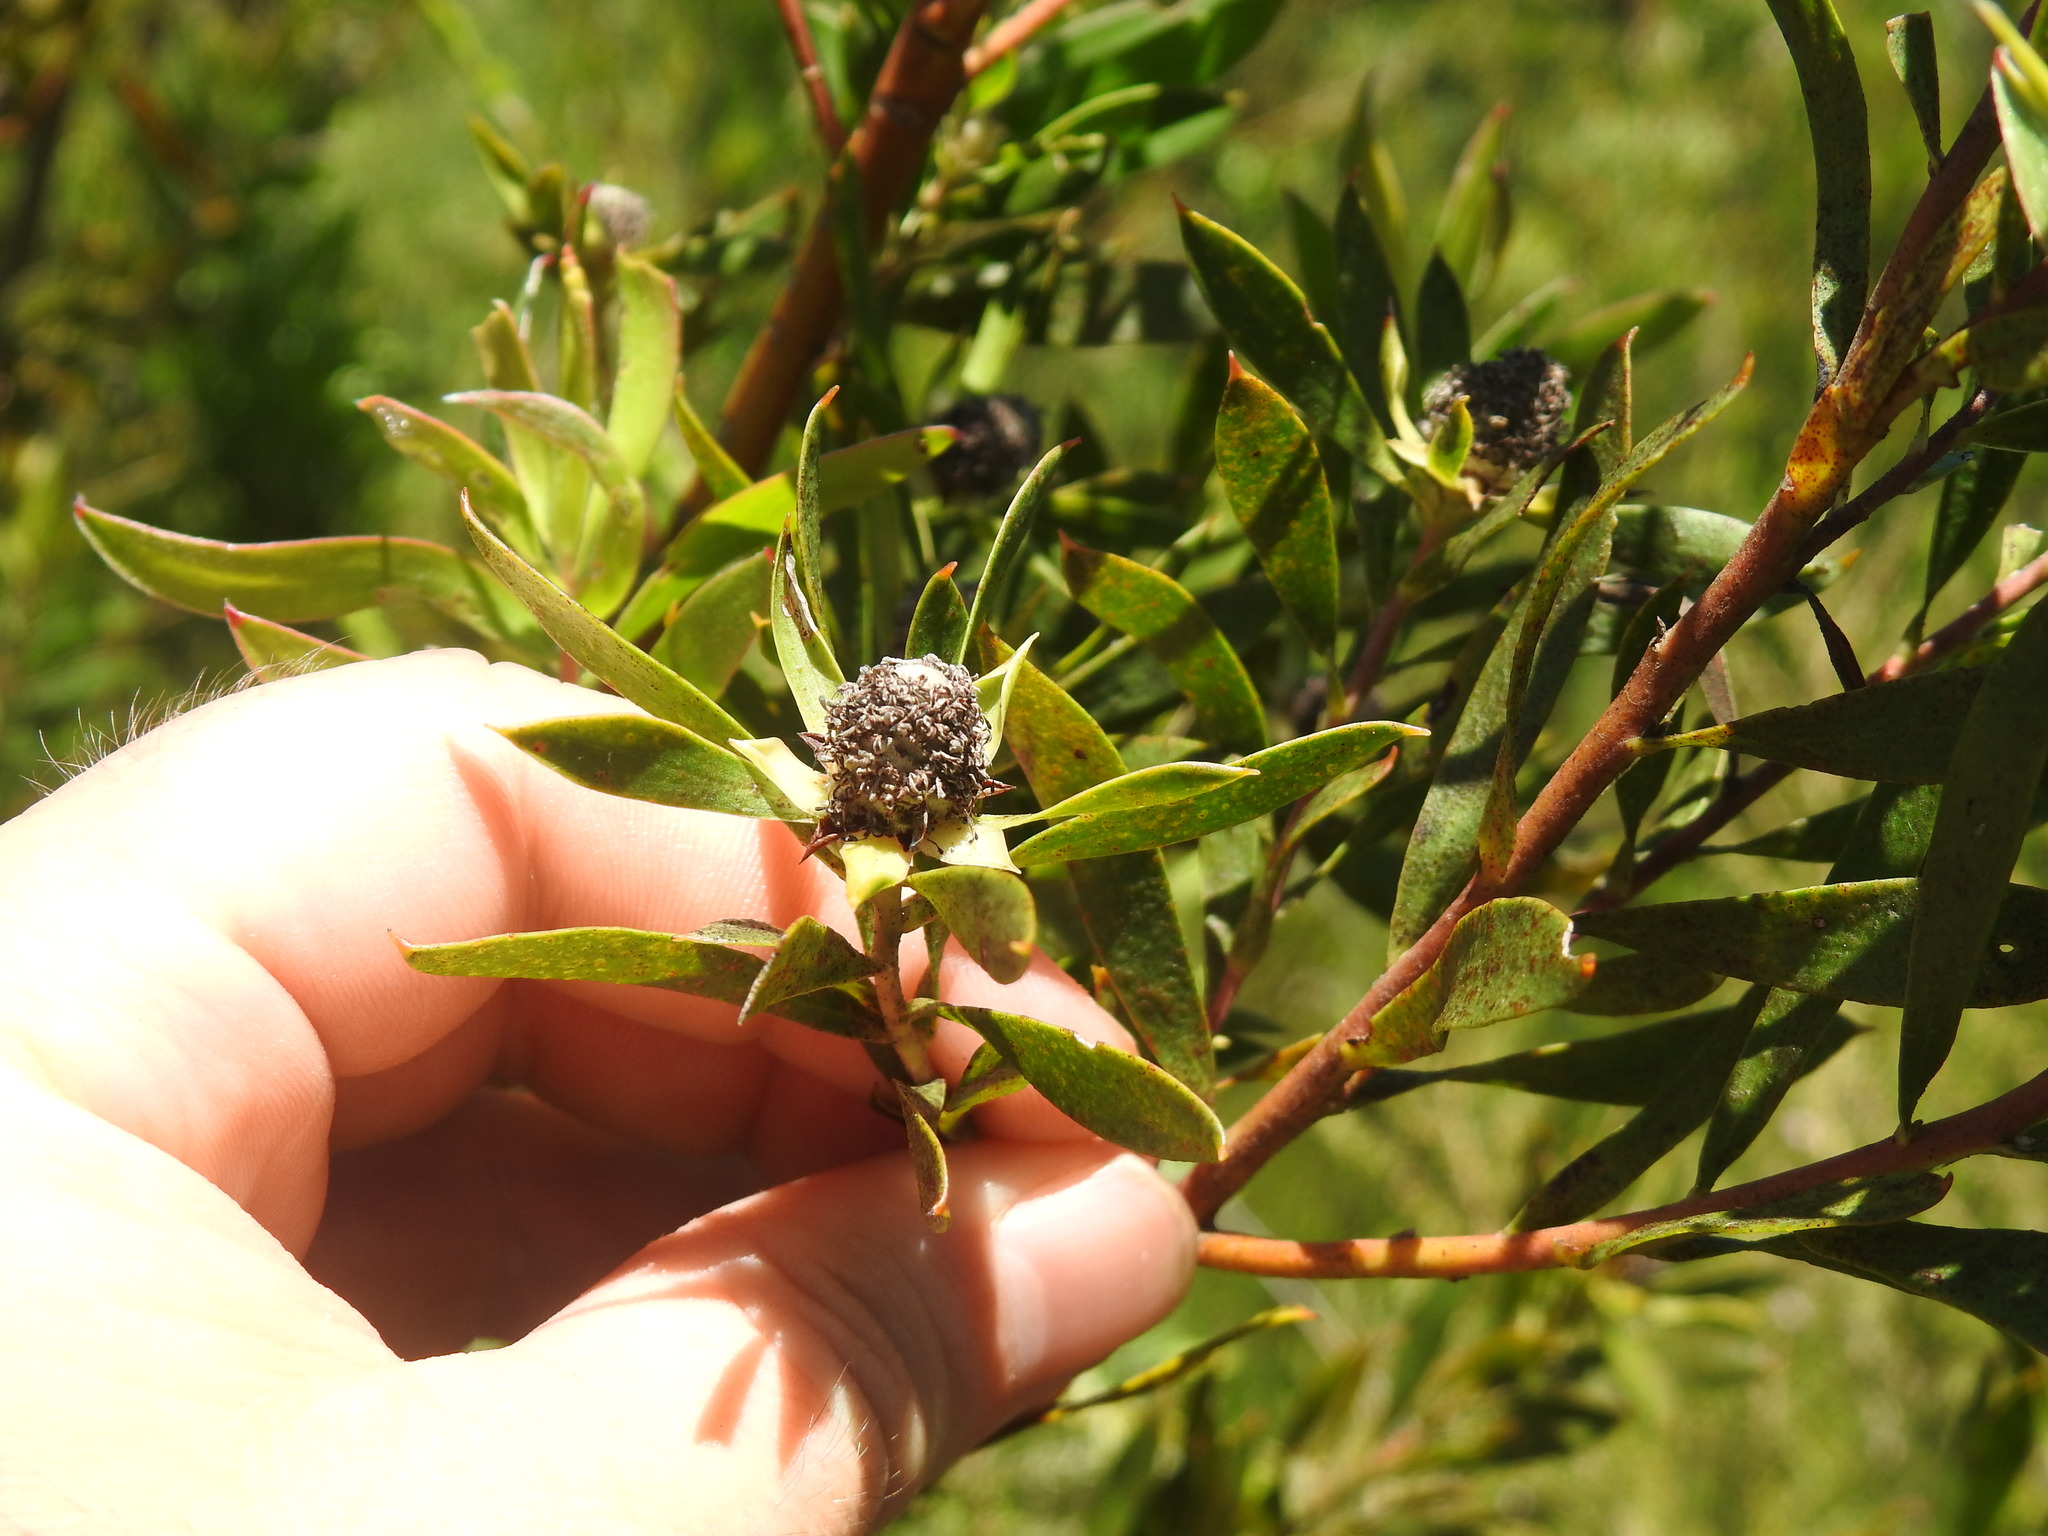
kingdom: Plantae
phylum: Tracheophyta
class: Magnoliopsida
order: Proteales
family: Proteaceae
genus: Leucadendron
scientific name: Leucadendron conicum
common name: Garden route conebush
